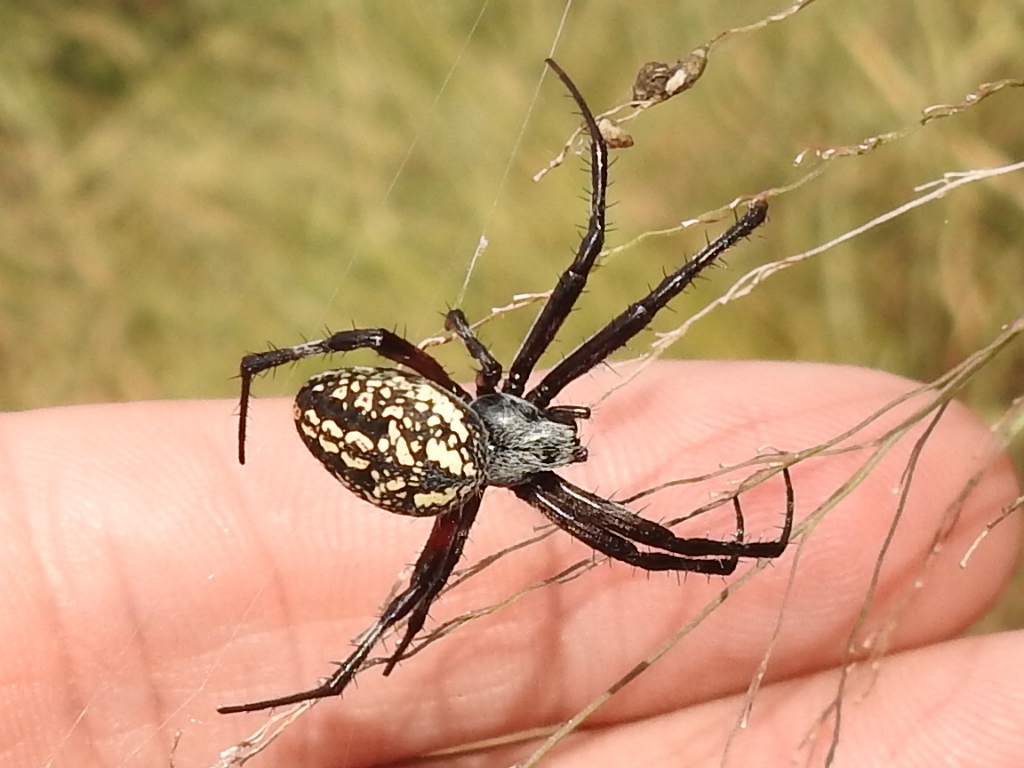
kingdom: Animalia
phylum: Arthropoda
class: Arachnida
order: Araneae
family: Araneidae
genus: Neoscona
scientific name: Neoscona oaxacensis
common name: Orb weavers
